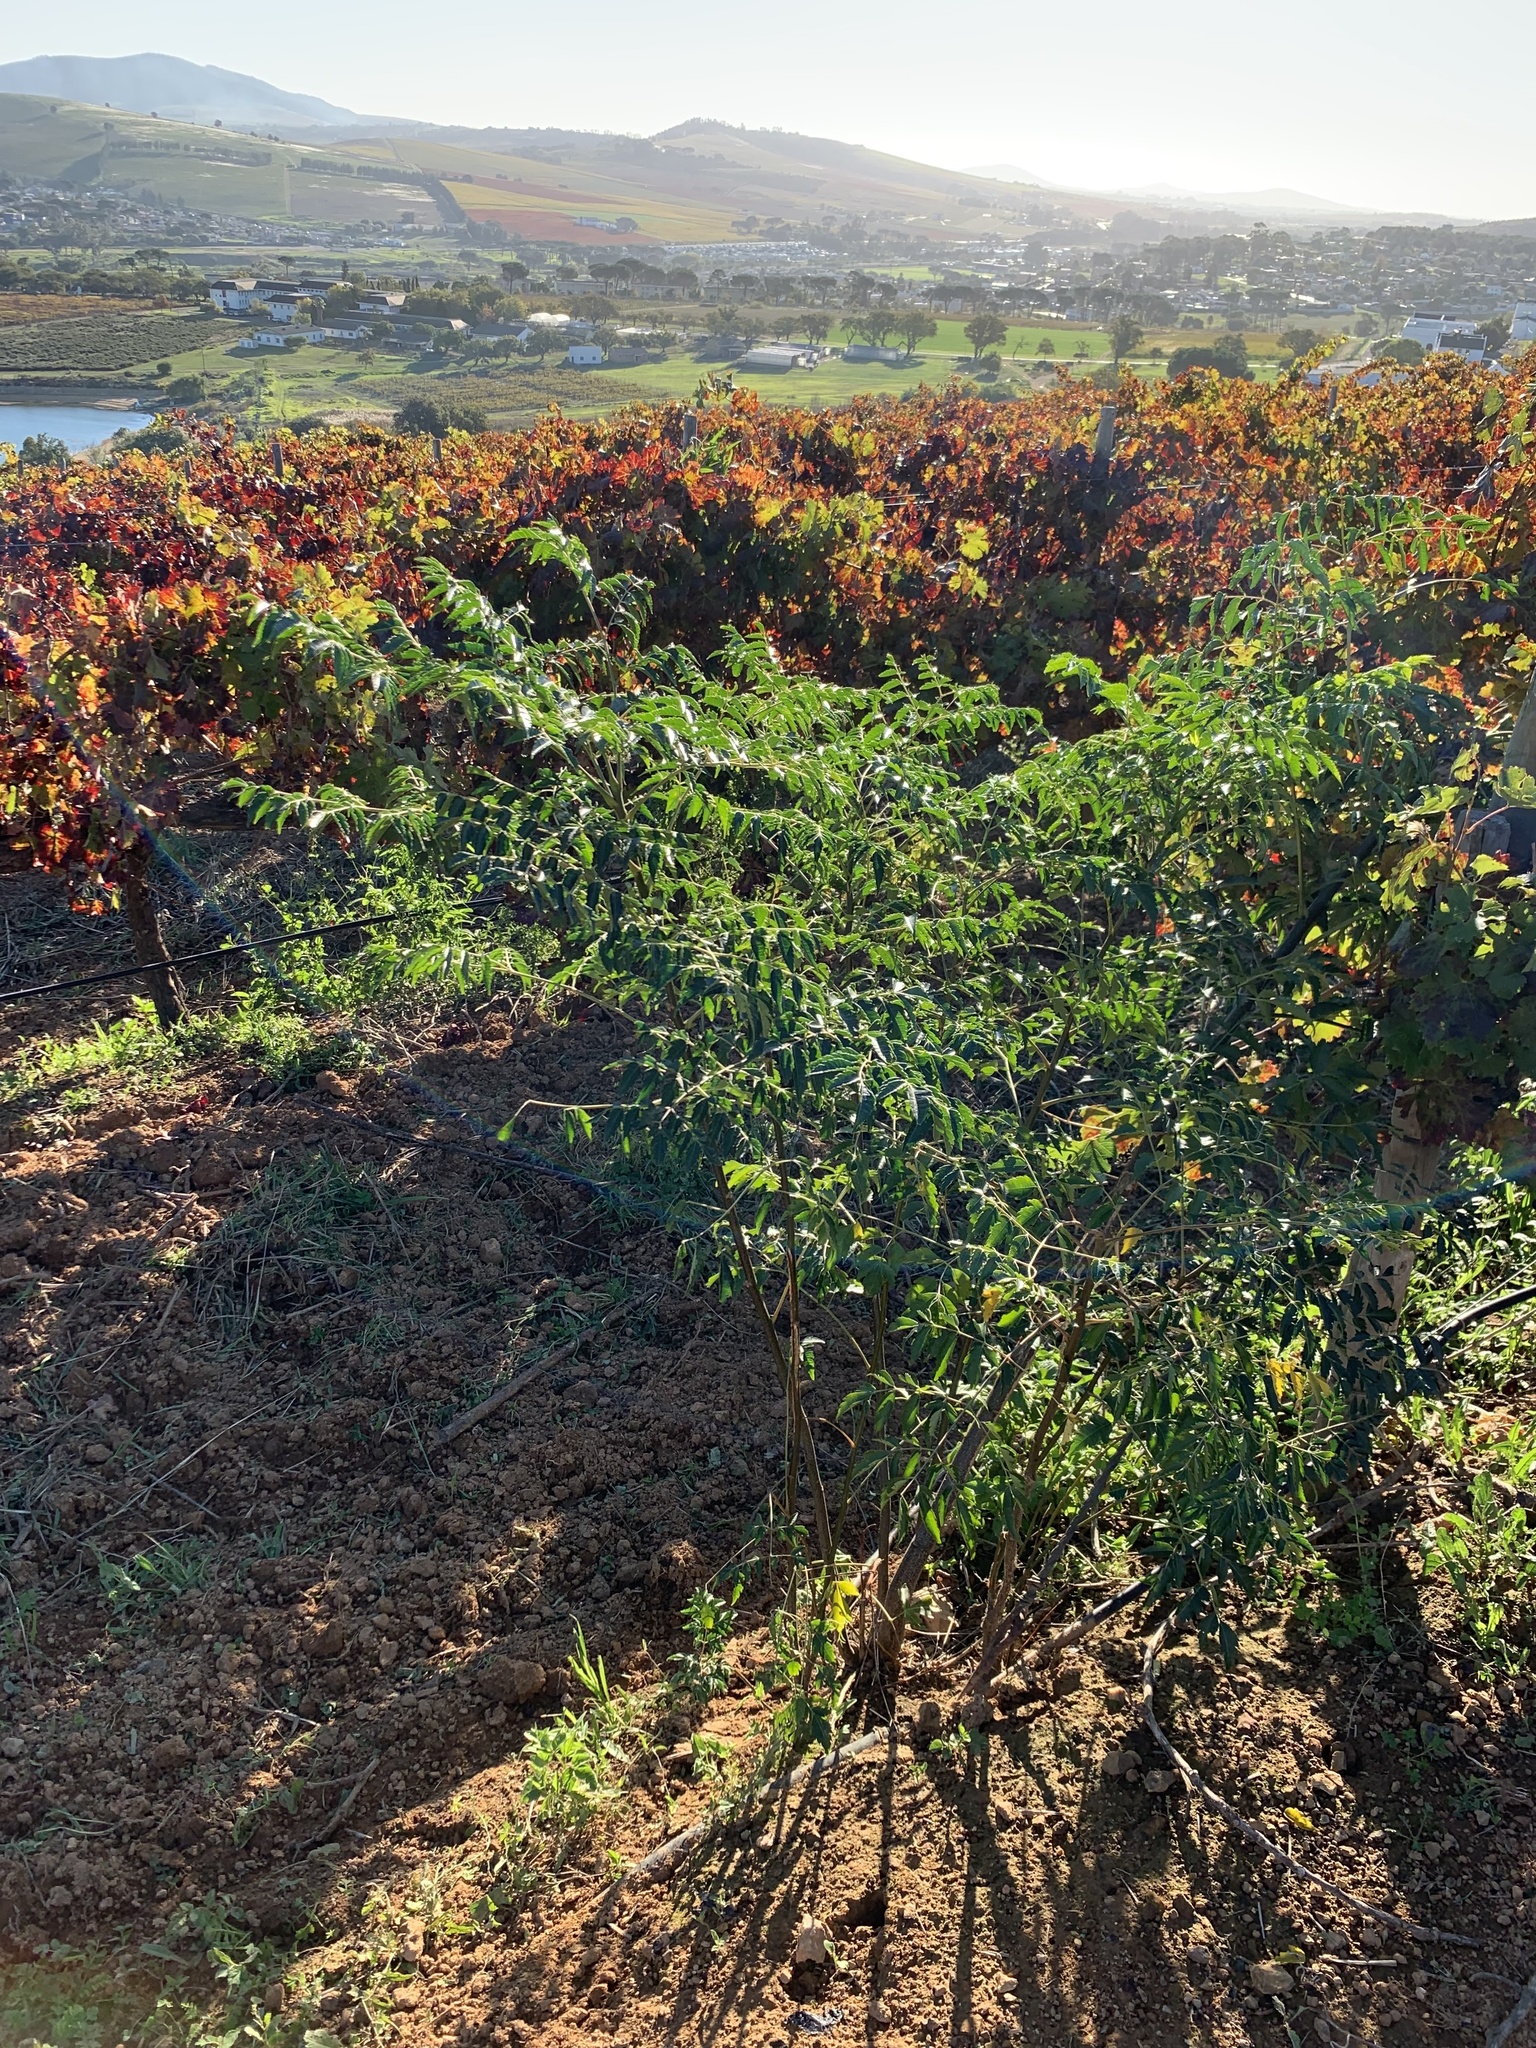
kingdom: Plantae
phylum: Tracheophyta
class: Magnoliopsida
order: Sapindales
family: Meliaceae
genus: Melia
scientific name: Melia azedarach
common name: Chinaberrytree
